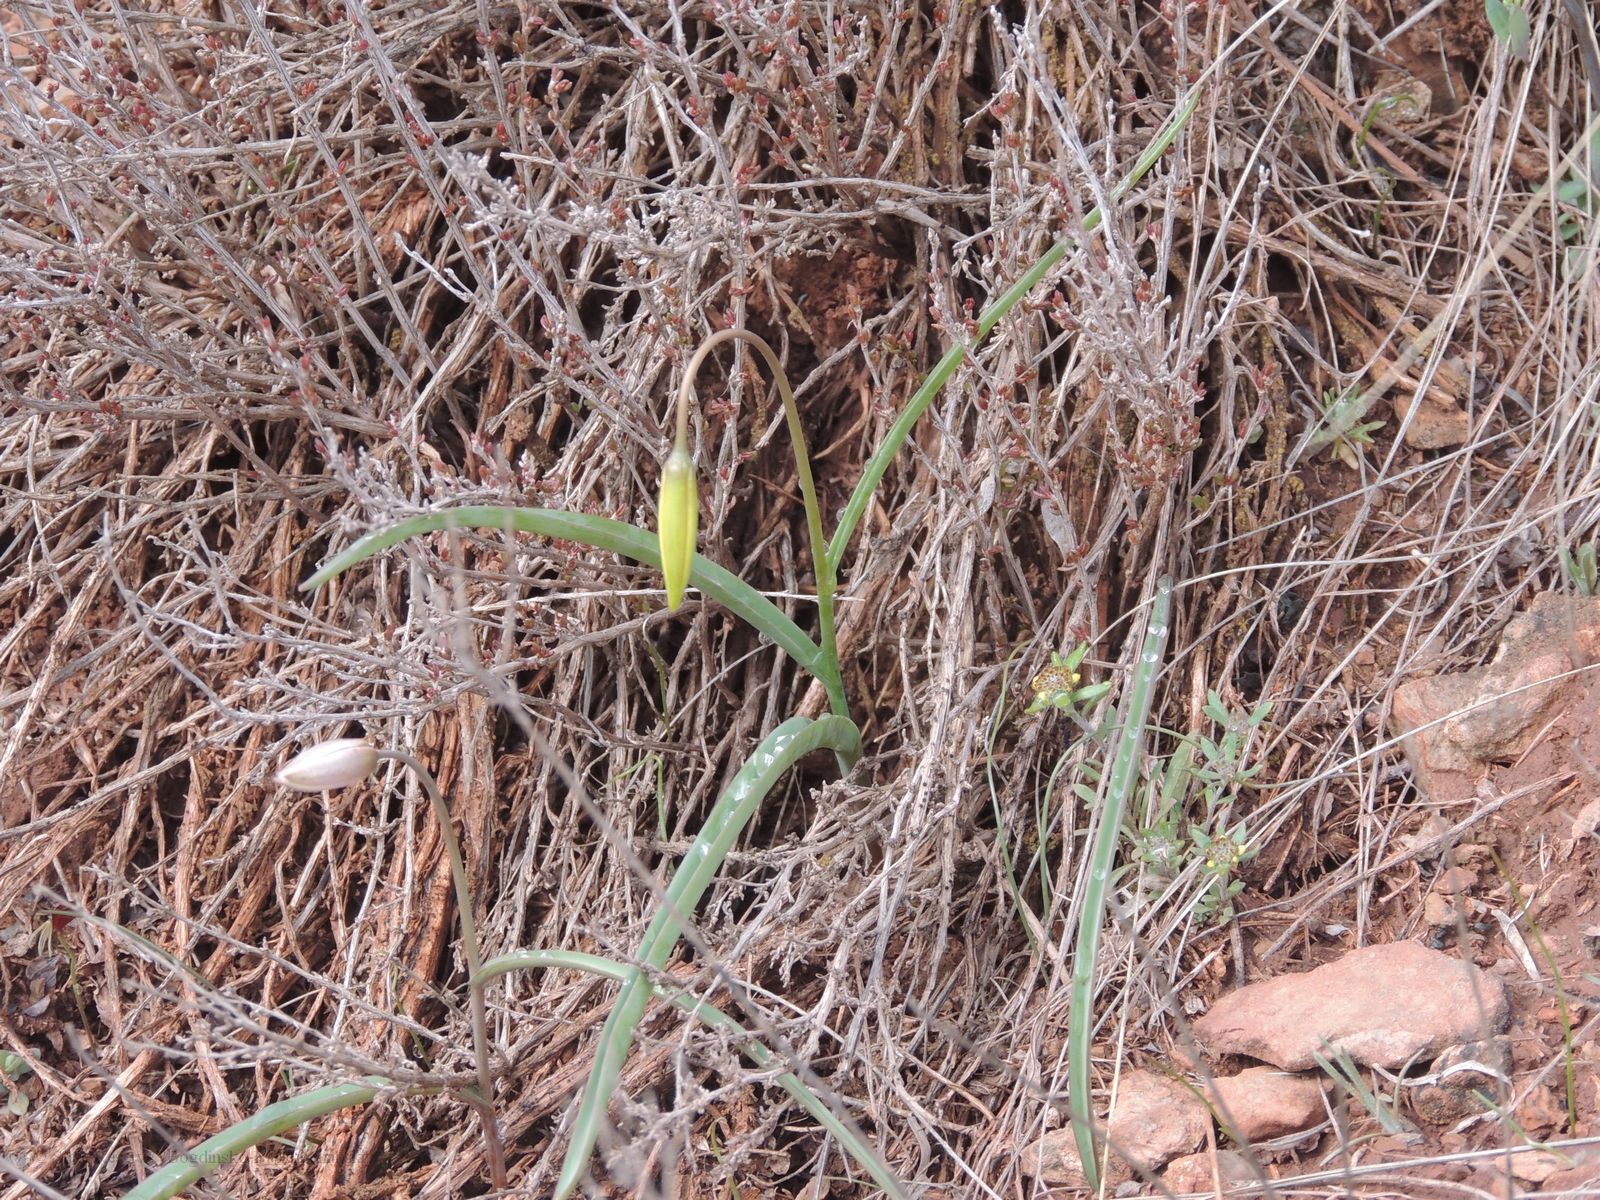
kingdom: Plantae
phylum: Tracheophyta
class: Liliopsida
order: Liliales
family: Liliaceae
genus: Tulipa
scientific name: Tulipa sylvestris
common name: Wild tulip
